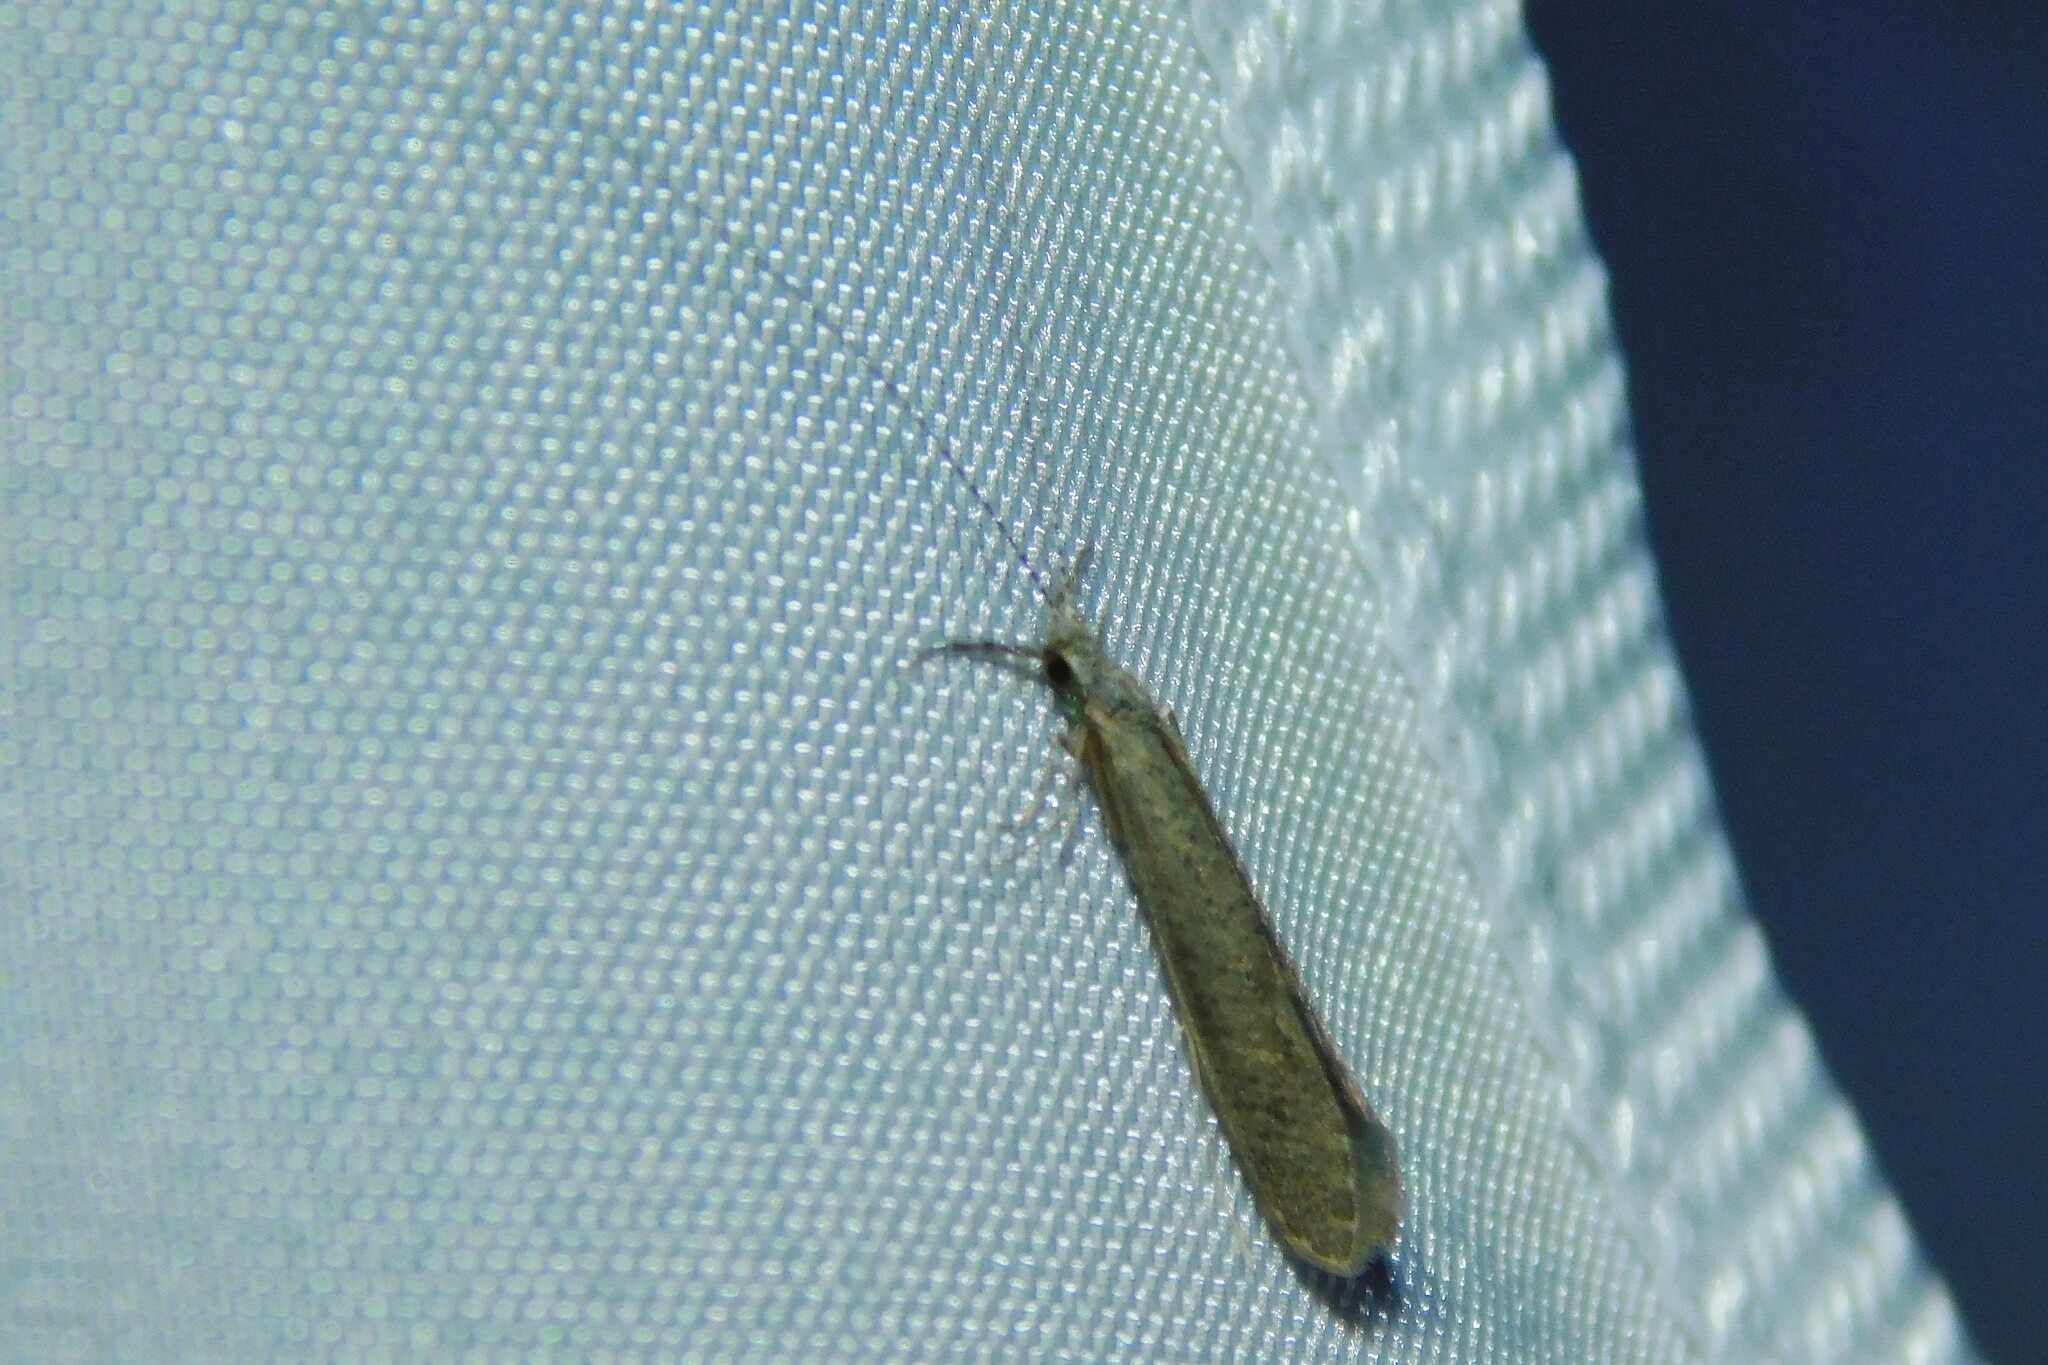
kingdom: Animalia
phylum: Arthropoda
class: Insecta
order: Trichoptera
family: Leptoceridae
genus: Leptocerus
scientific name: Leptocerus tineiformis
